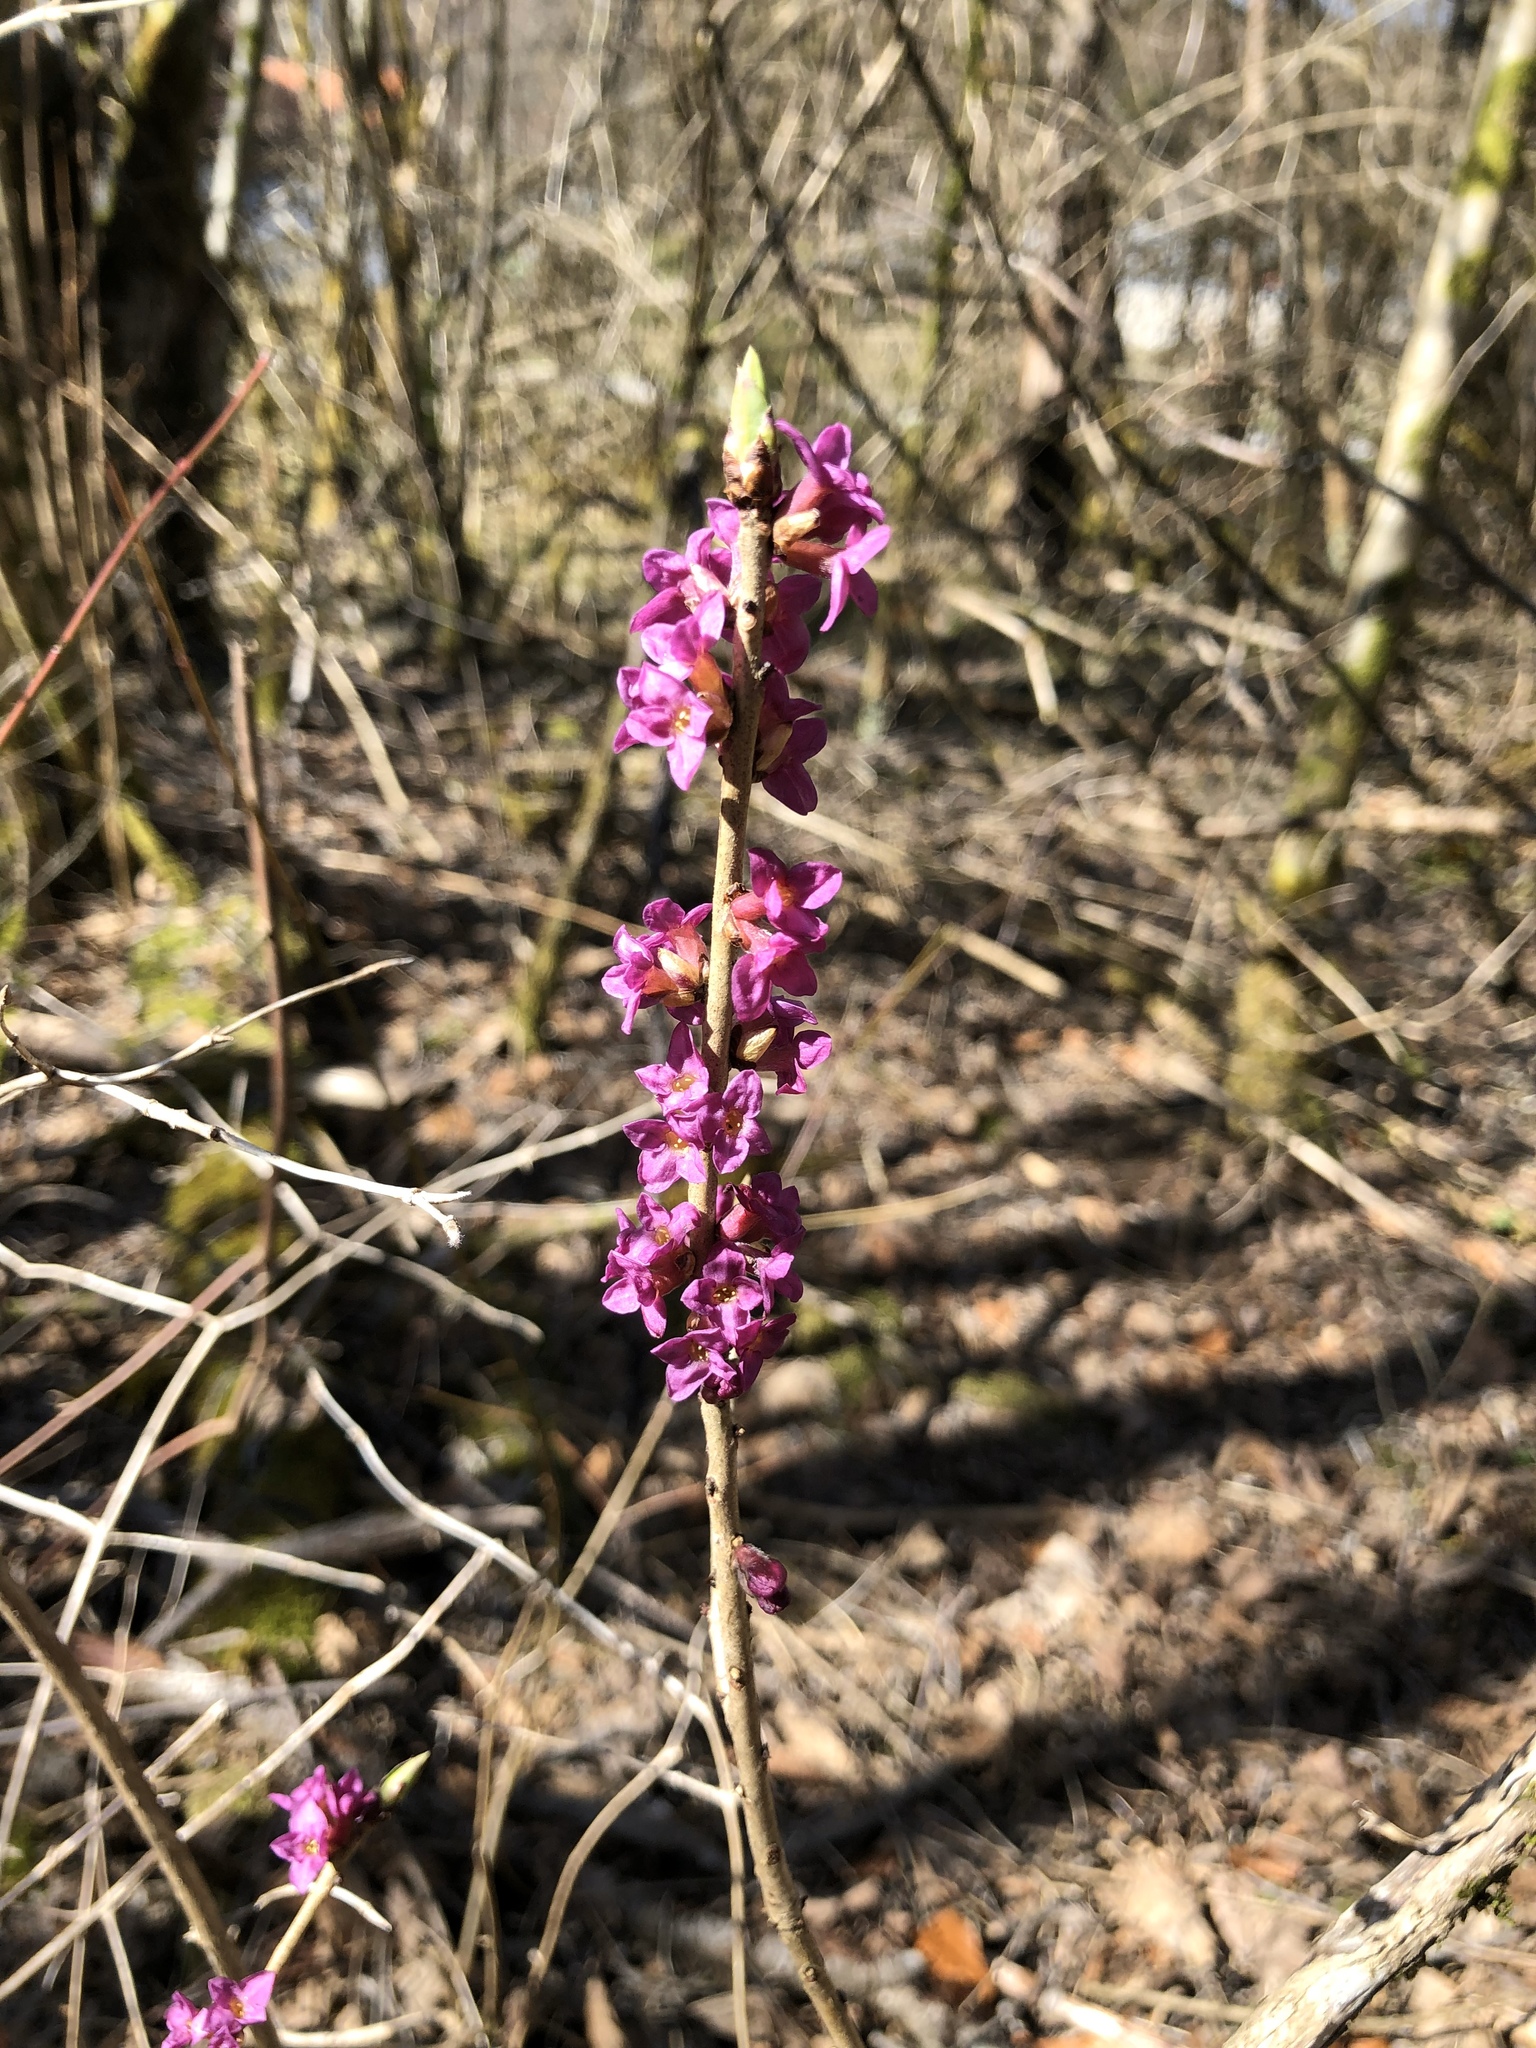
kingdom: Plantae
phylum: Tracheophyta
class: Magnoliopsida
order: Malvales
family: Thymelaeaceae
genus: Daphne
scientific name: Daphne mezereum
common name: Mezereon
